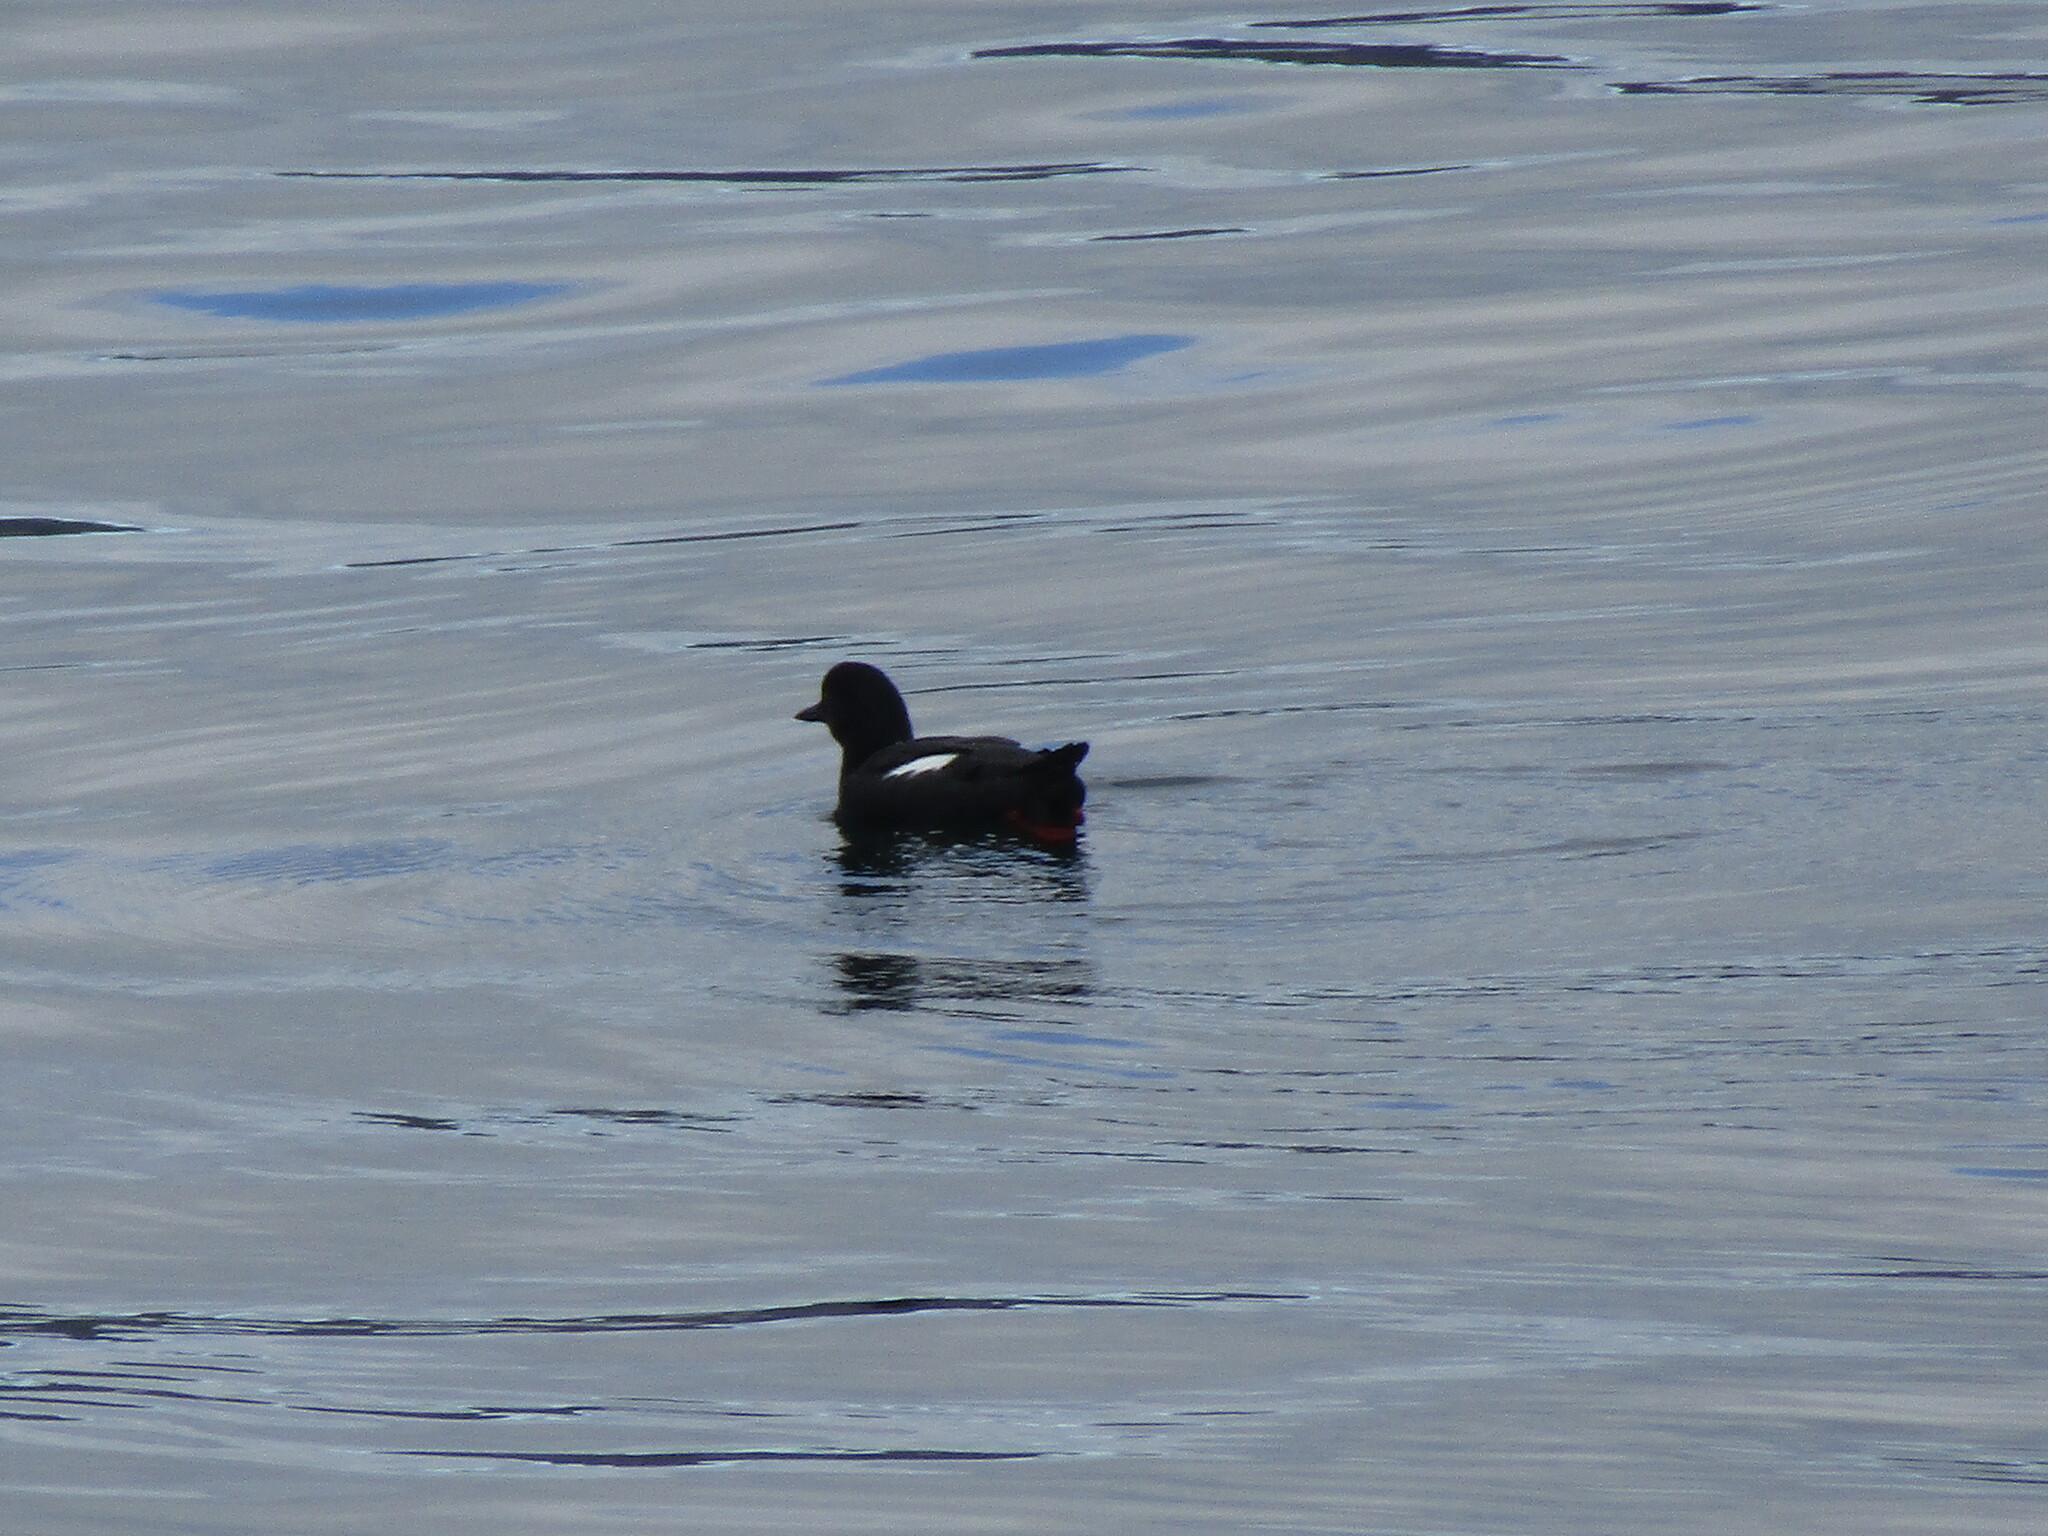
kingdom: Animalia
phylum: Chordata
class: Aves
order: Charadriiformes
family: Alcidae
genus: Cepphus
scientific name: Cepphus columba
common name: Pigeon guillemot
